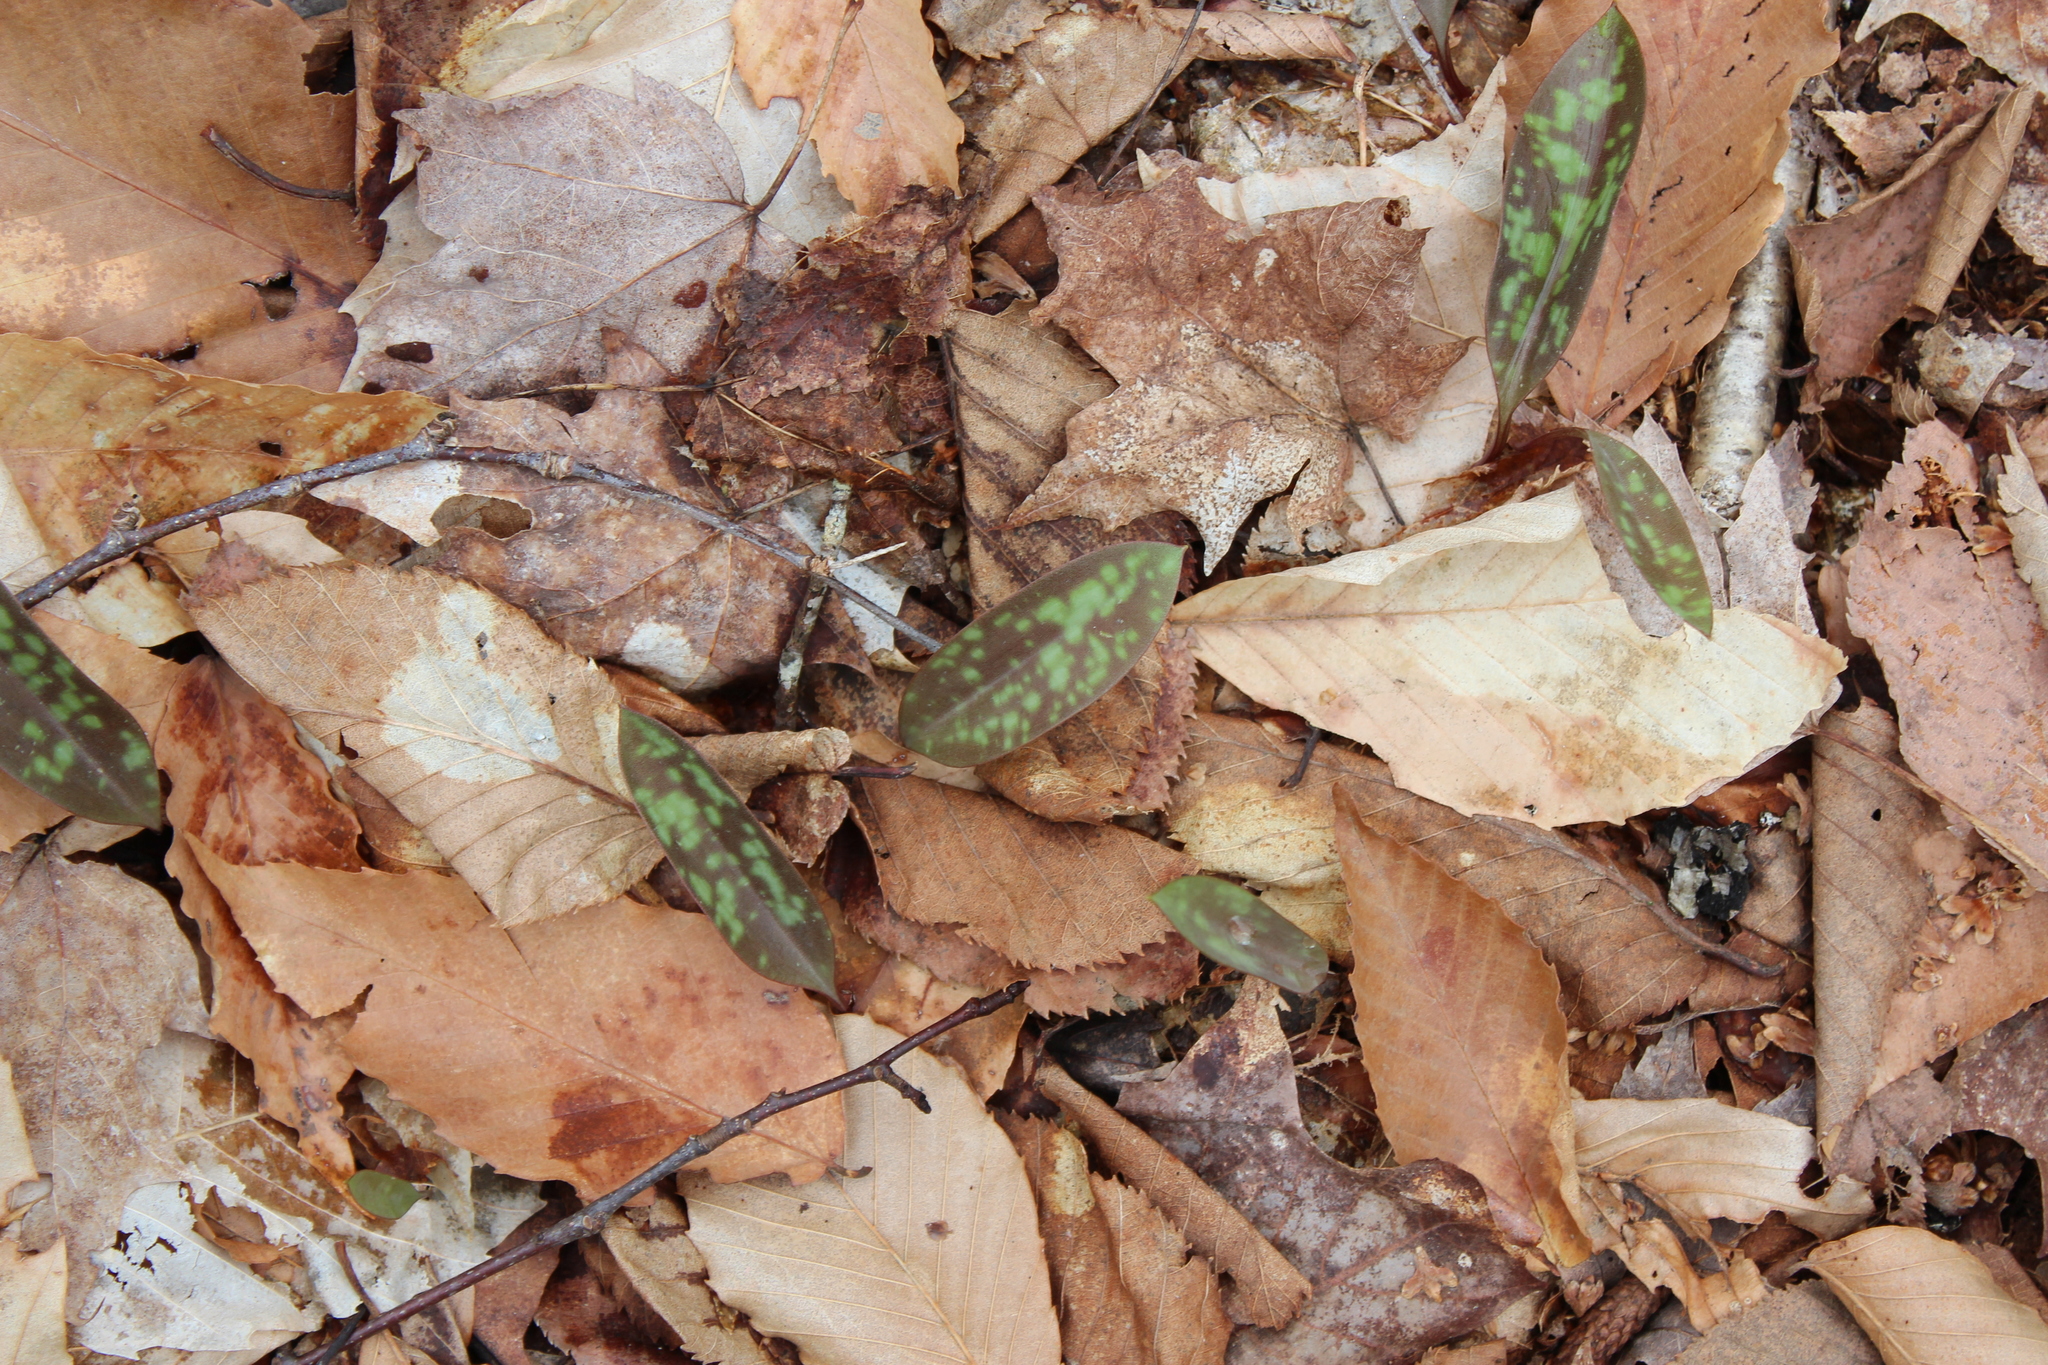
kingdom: Plantae
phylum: Tracheophyta
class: Liliopsida
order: Liliales
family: Liliaceae
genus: Erythronium
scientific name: Erythronium americanum
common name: Yellow adder's-tongue
